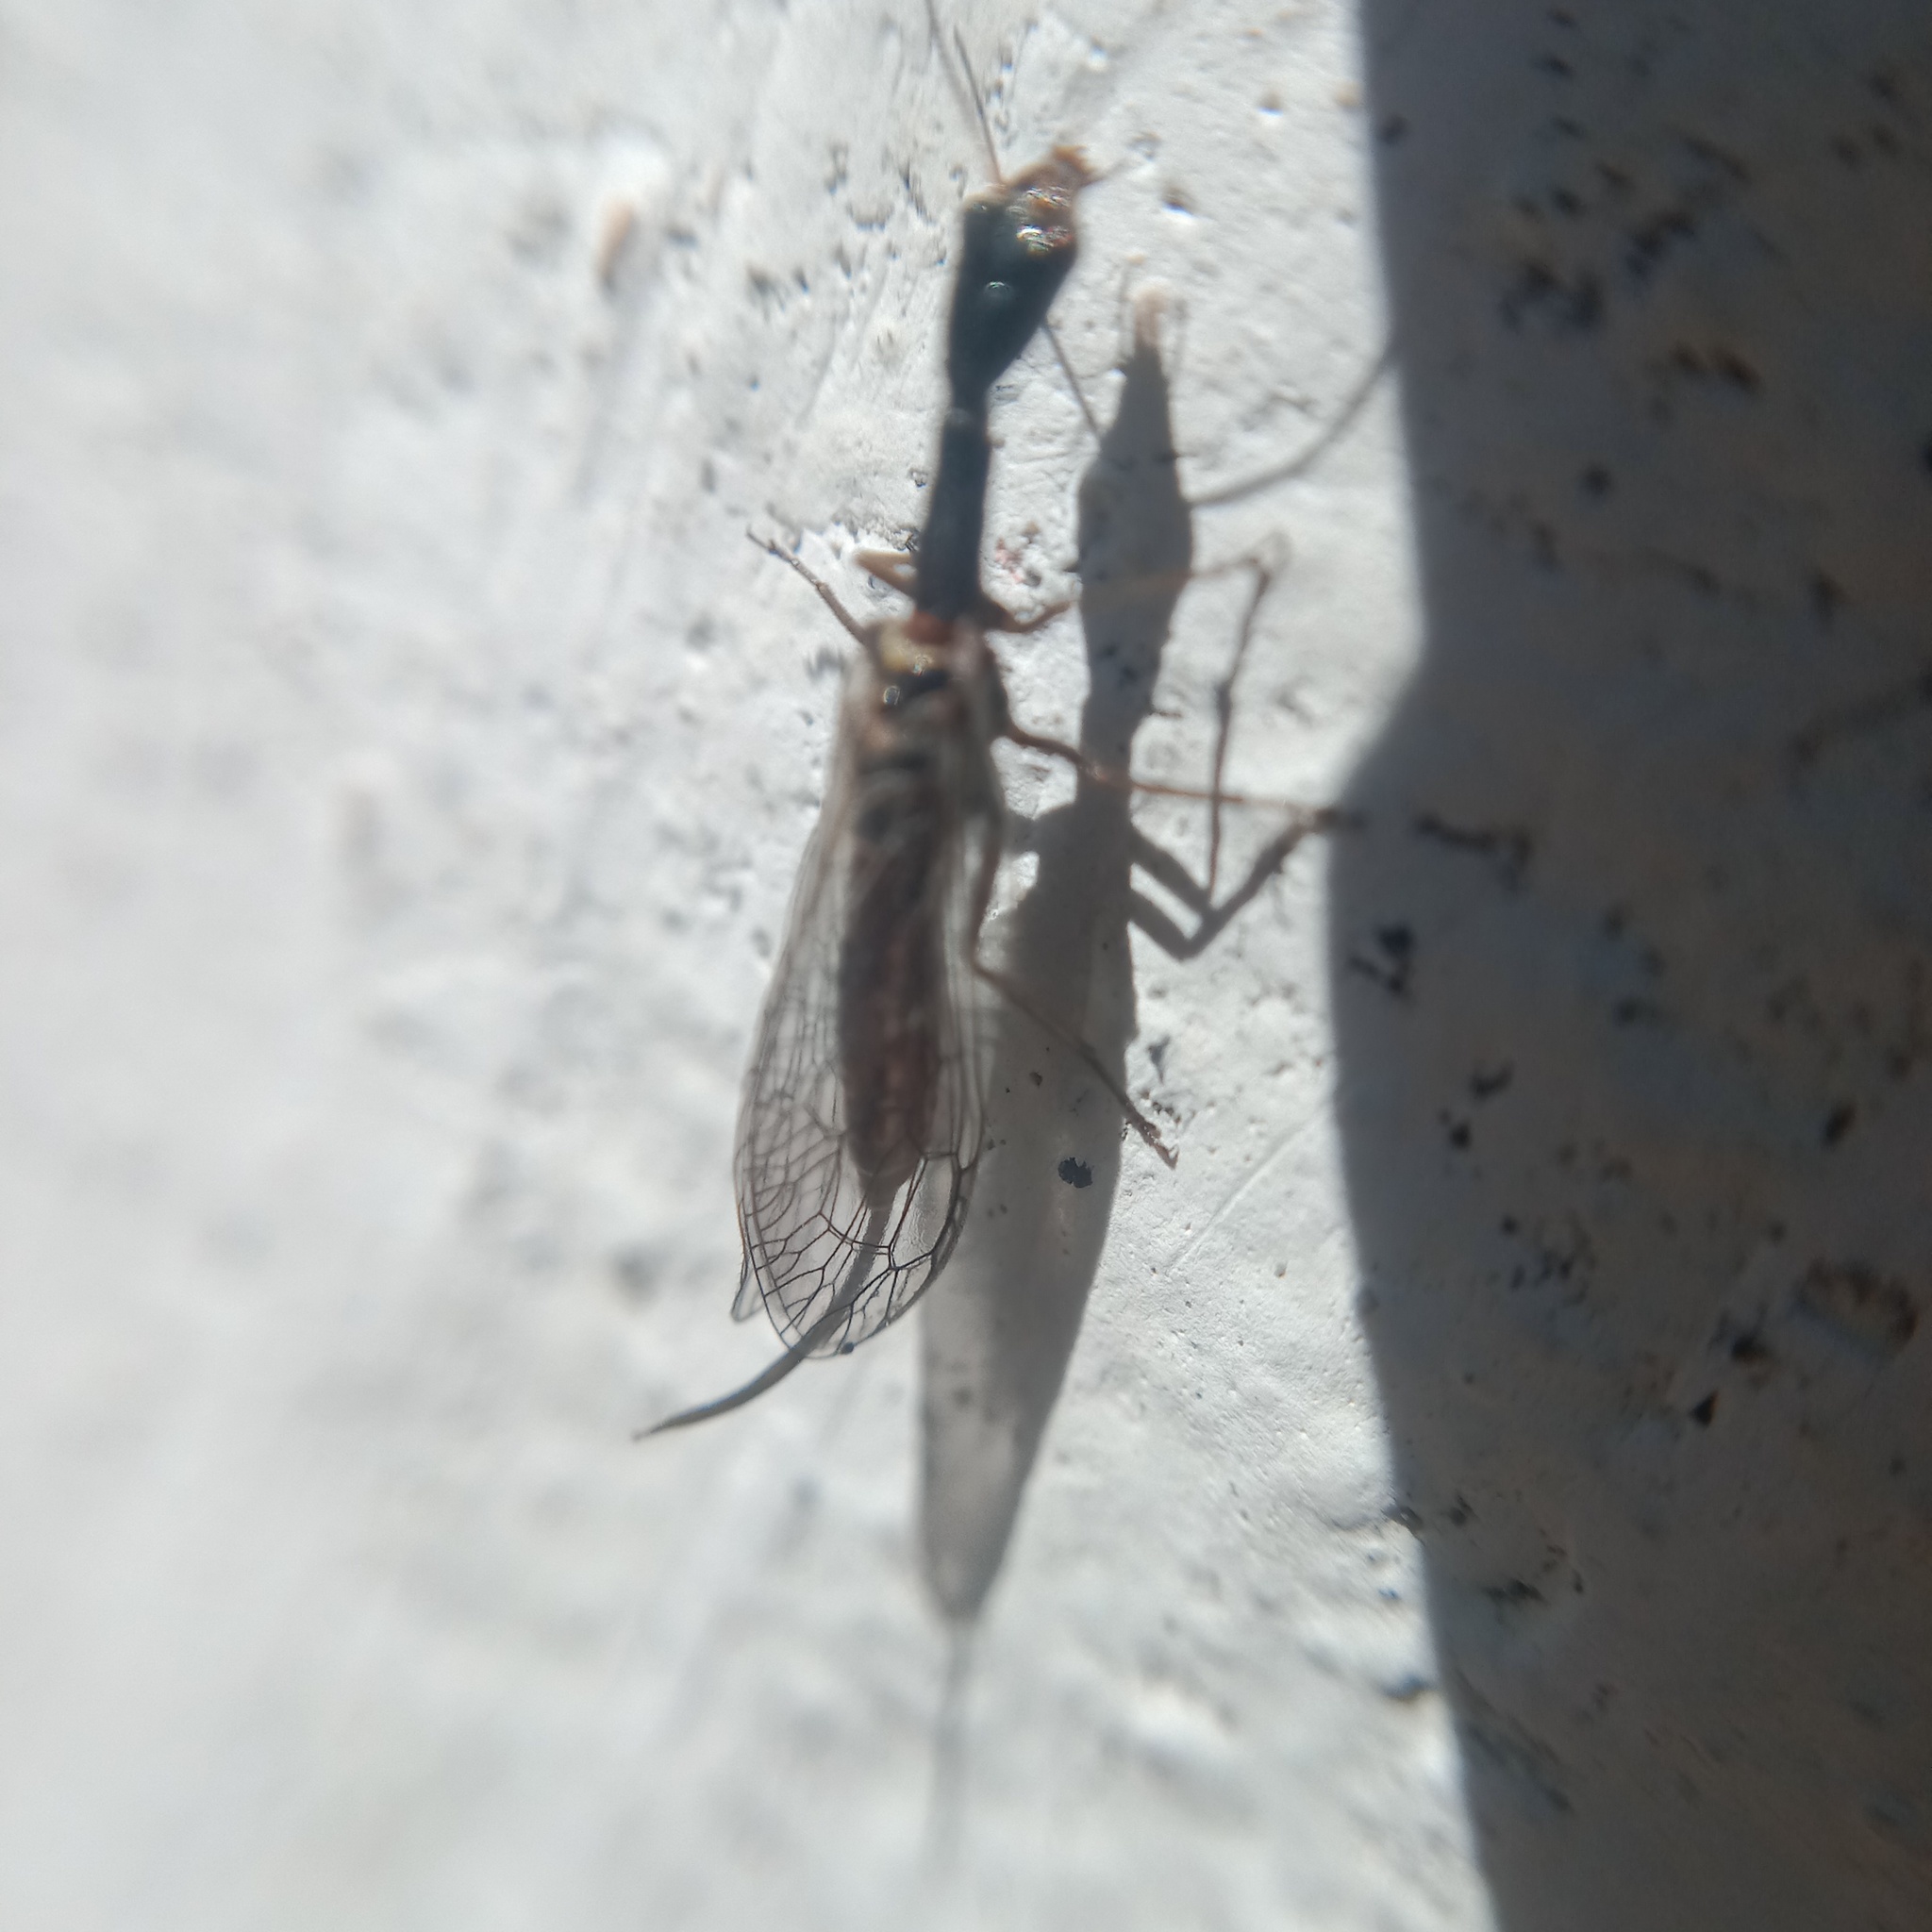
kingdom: Animalia
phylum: Arthropoda
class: Insecta
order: Raphidioptera
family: Raphidiidae
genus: Xanthostigma
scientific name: Xanthostigma xanthostigma
